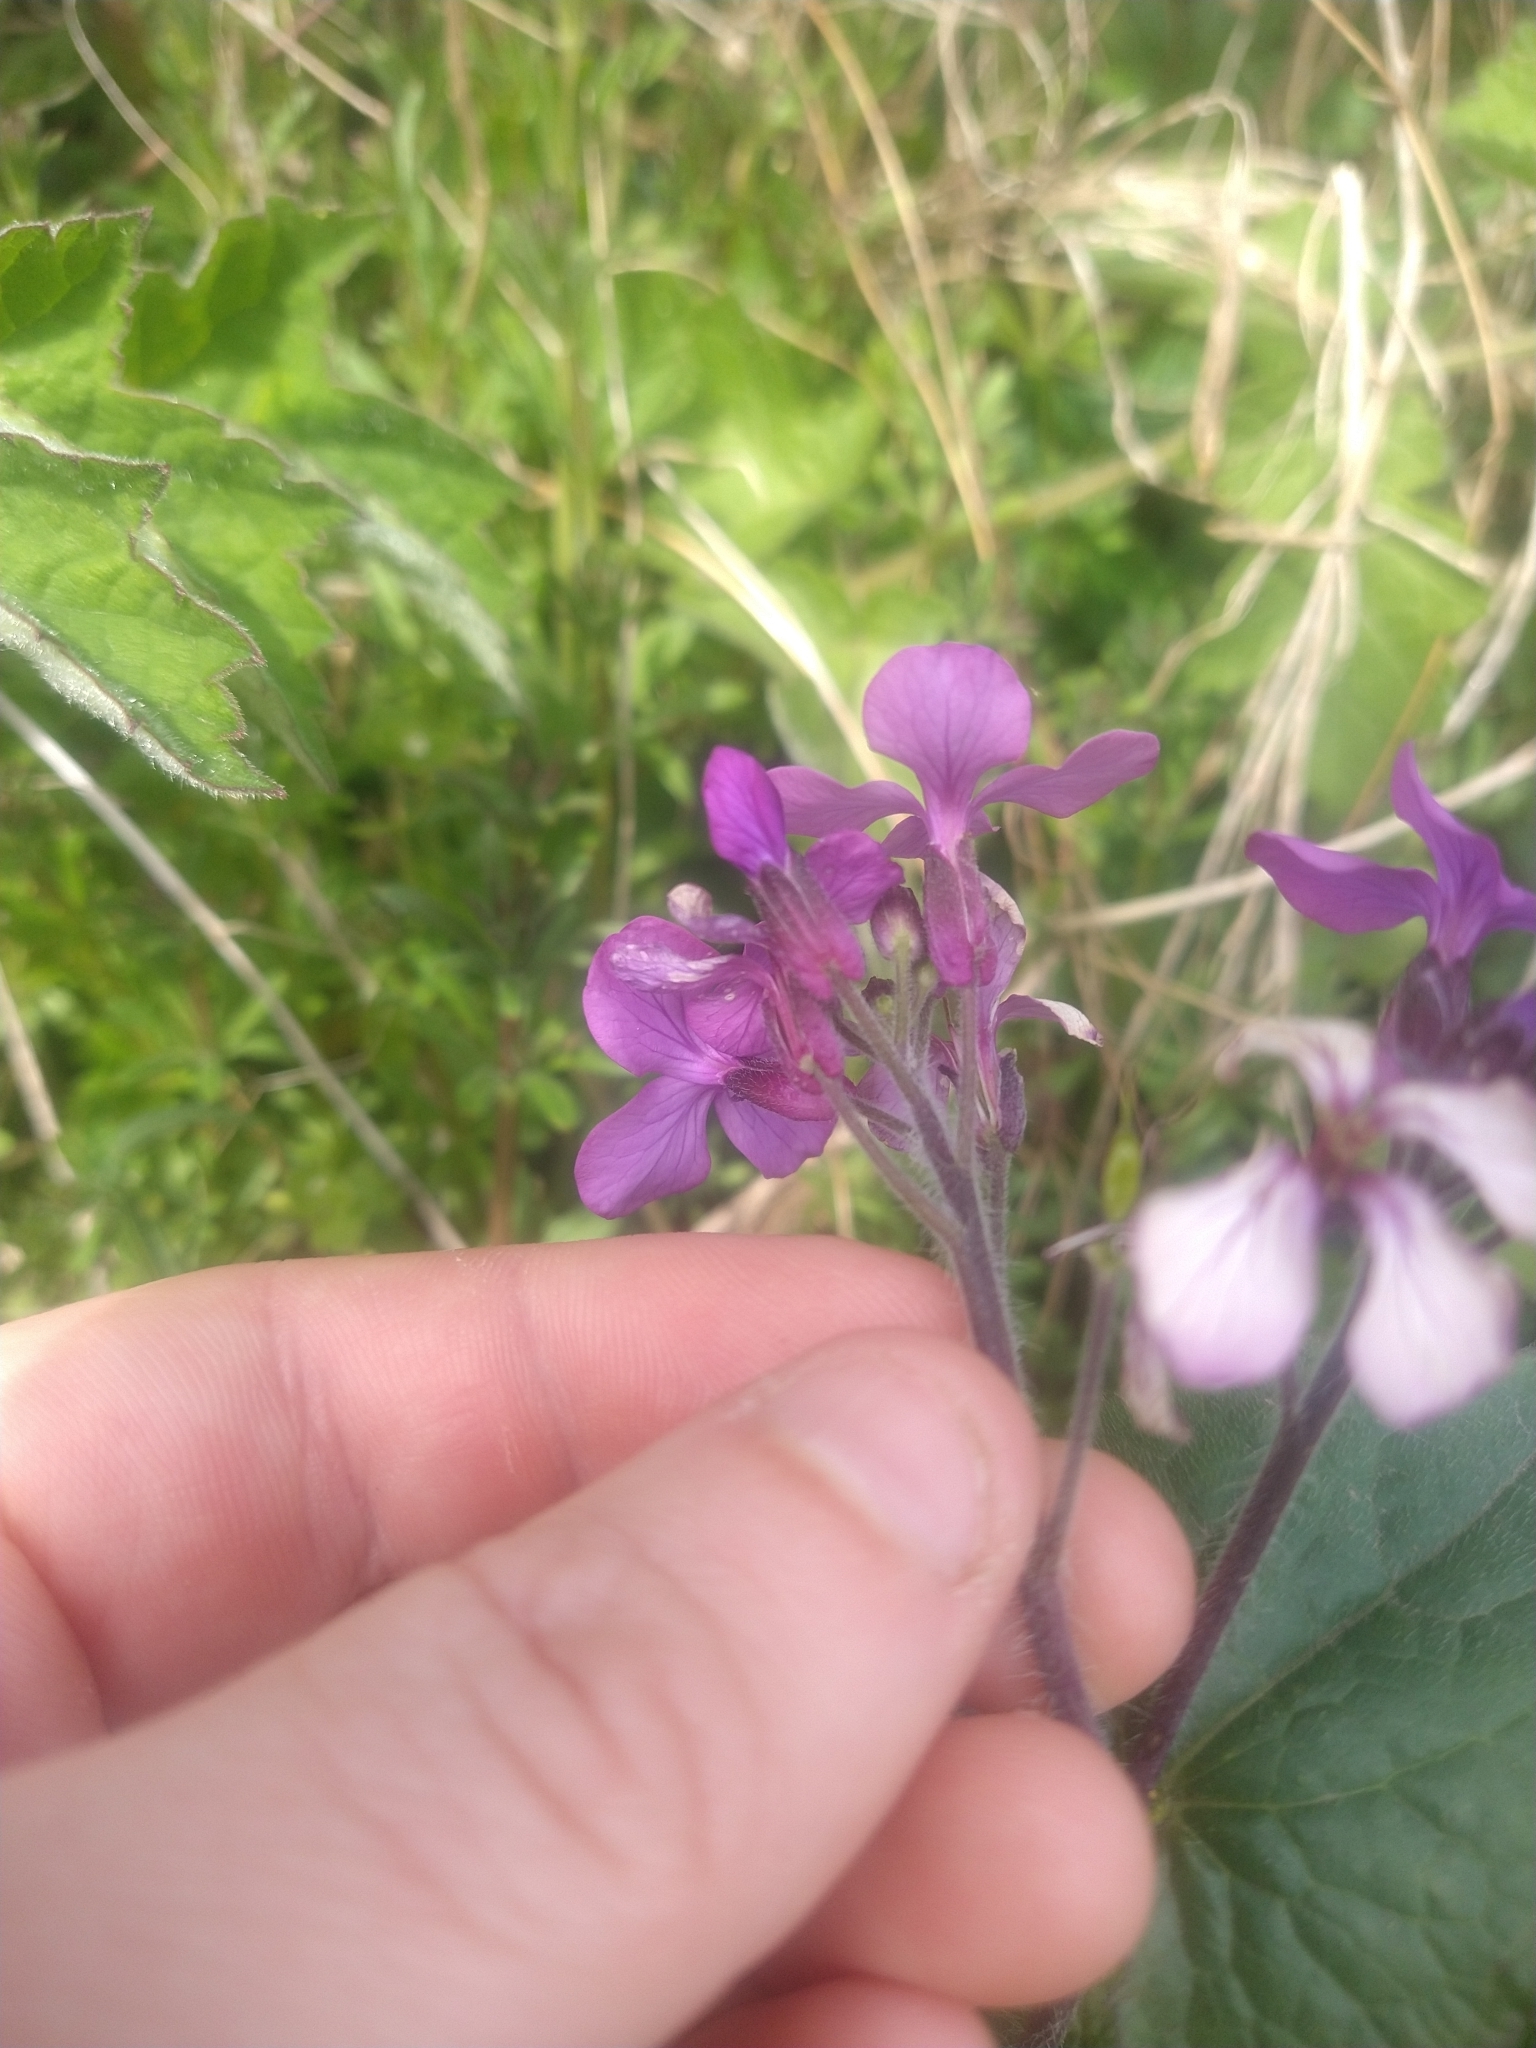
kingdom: Plantae
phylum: Tracheophyta
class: Magnoliopsida
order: Brassicales
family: Brassicaceae
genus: Lunaria
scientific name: Lunaria annua
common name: Honesty
